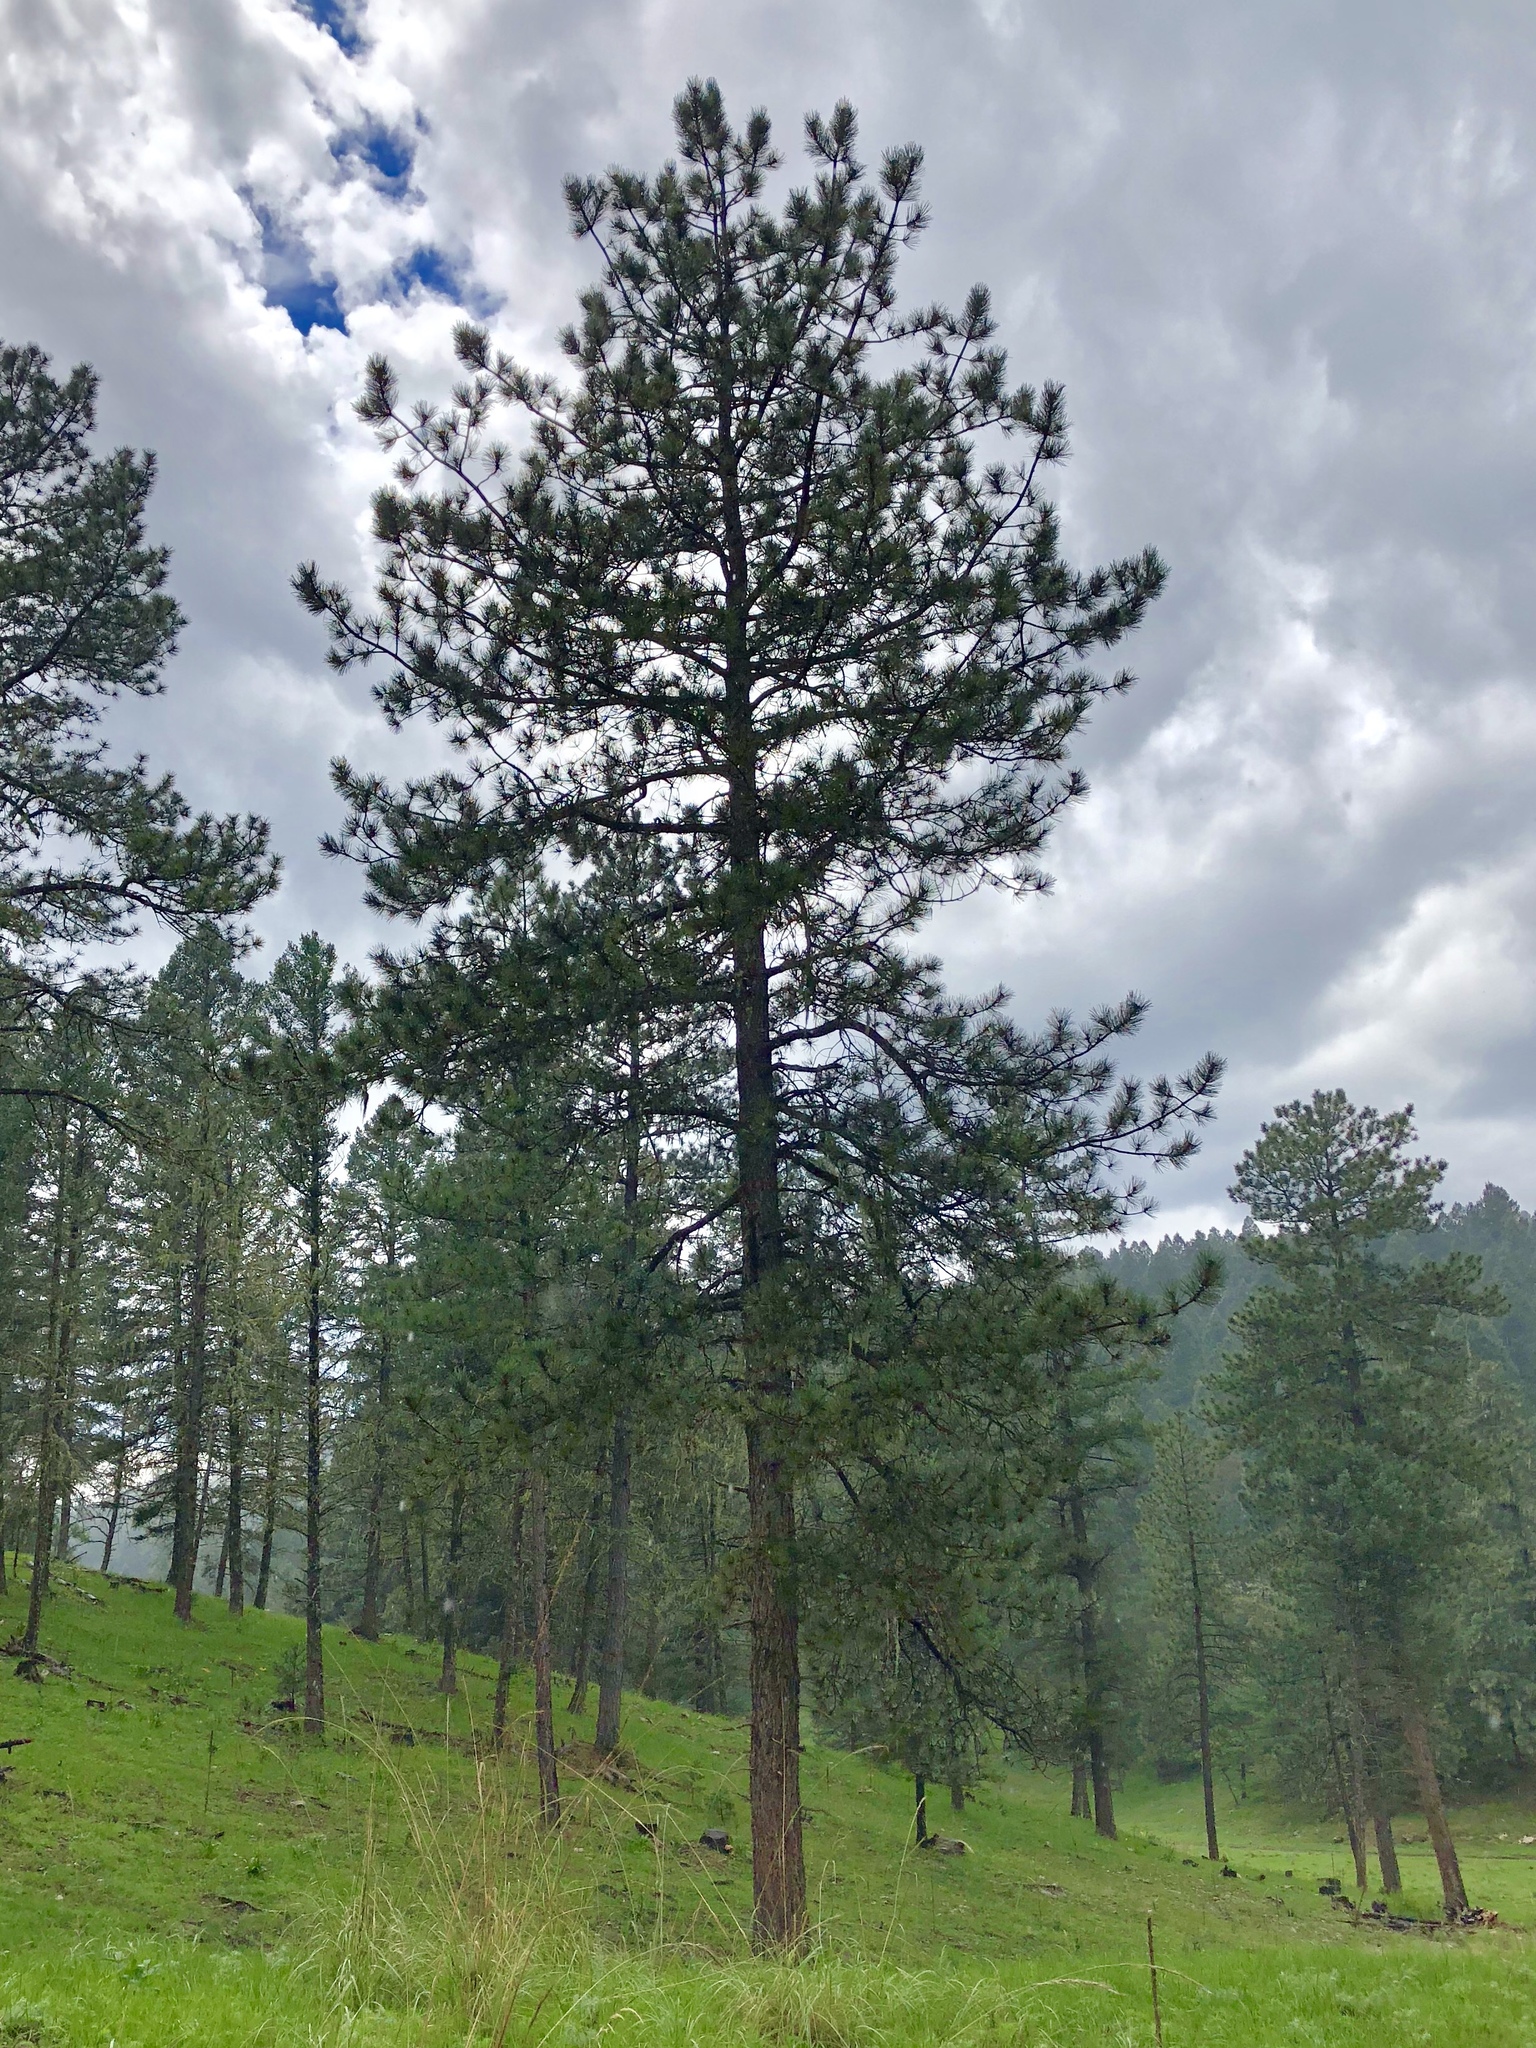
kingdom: Plantae
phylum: Tracheophyta
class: Pinopsida
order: Pinales
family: Pinaceae
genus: Pinus
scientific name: Pinus ponderosa
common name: Western yellow-pine
